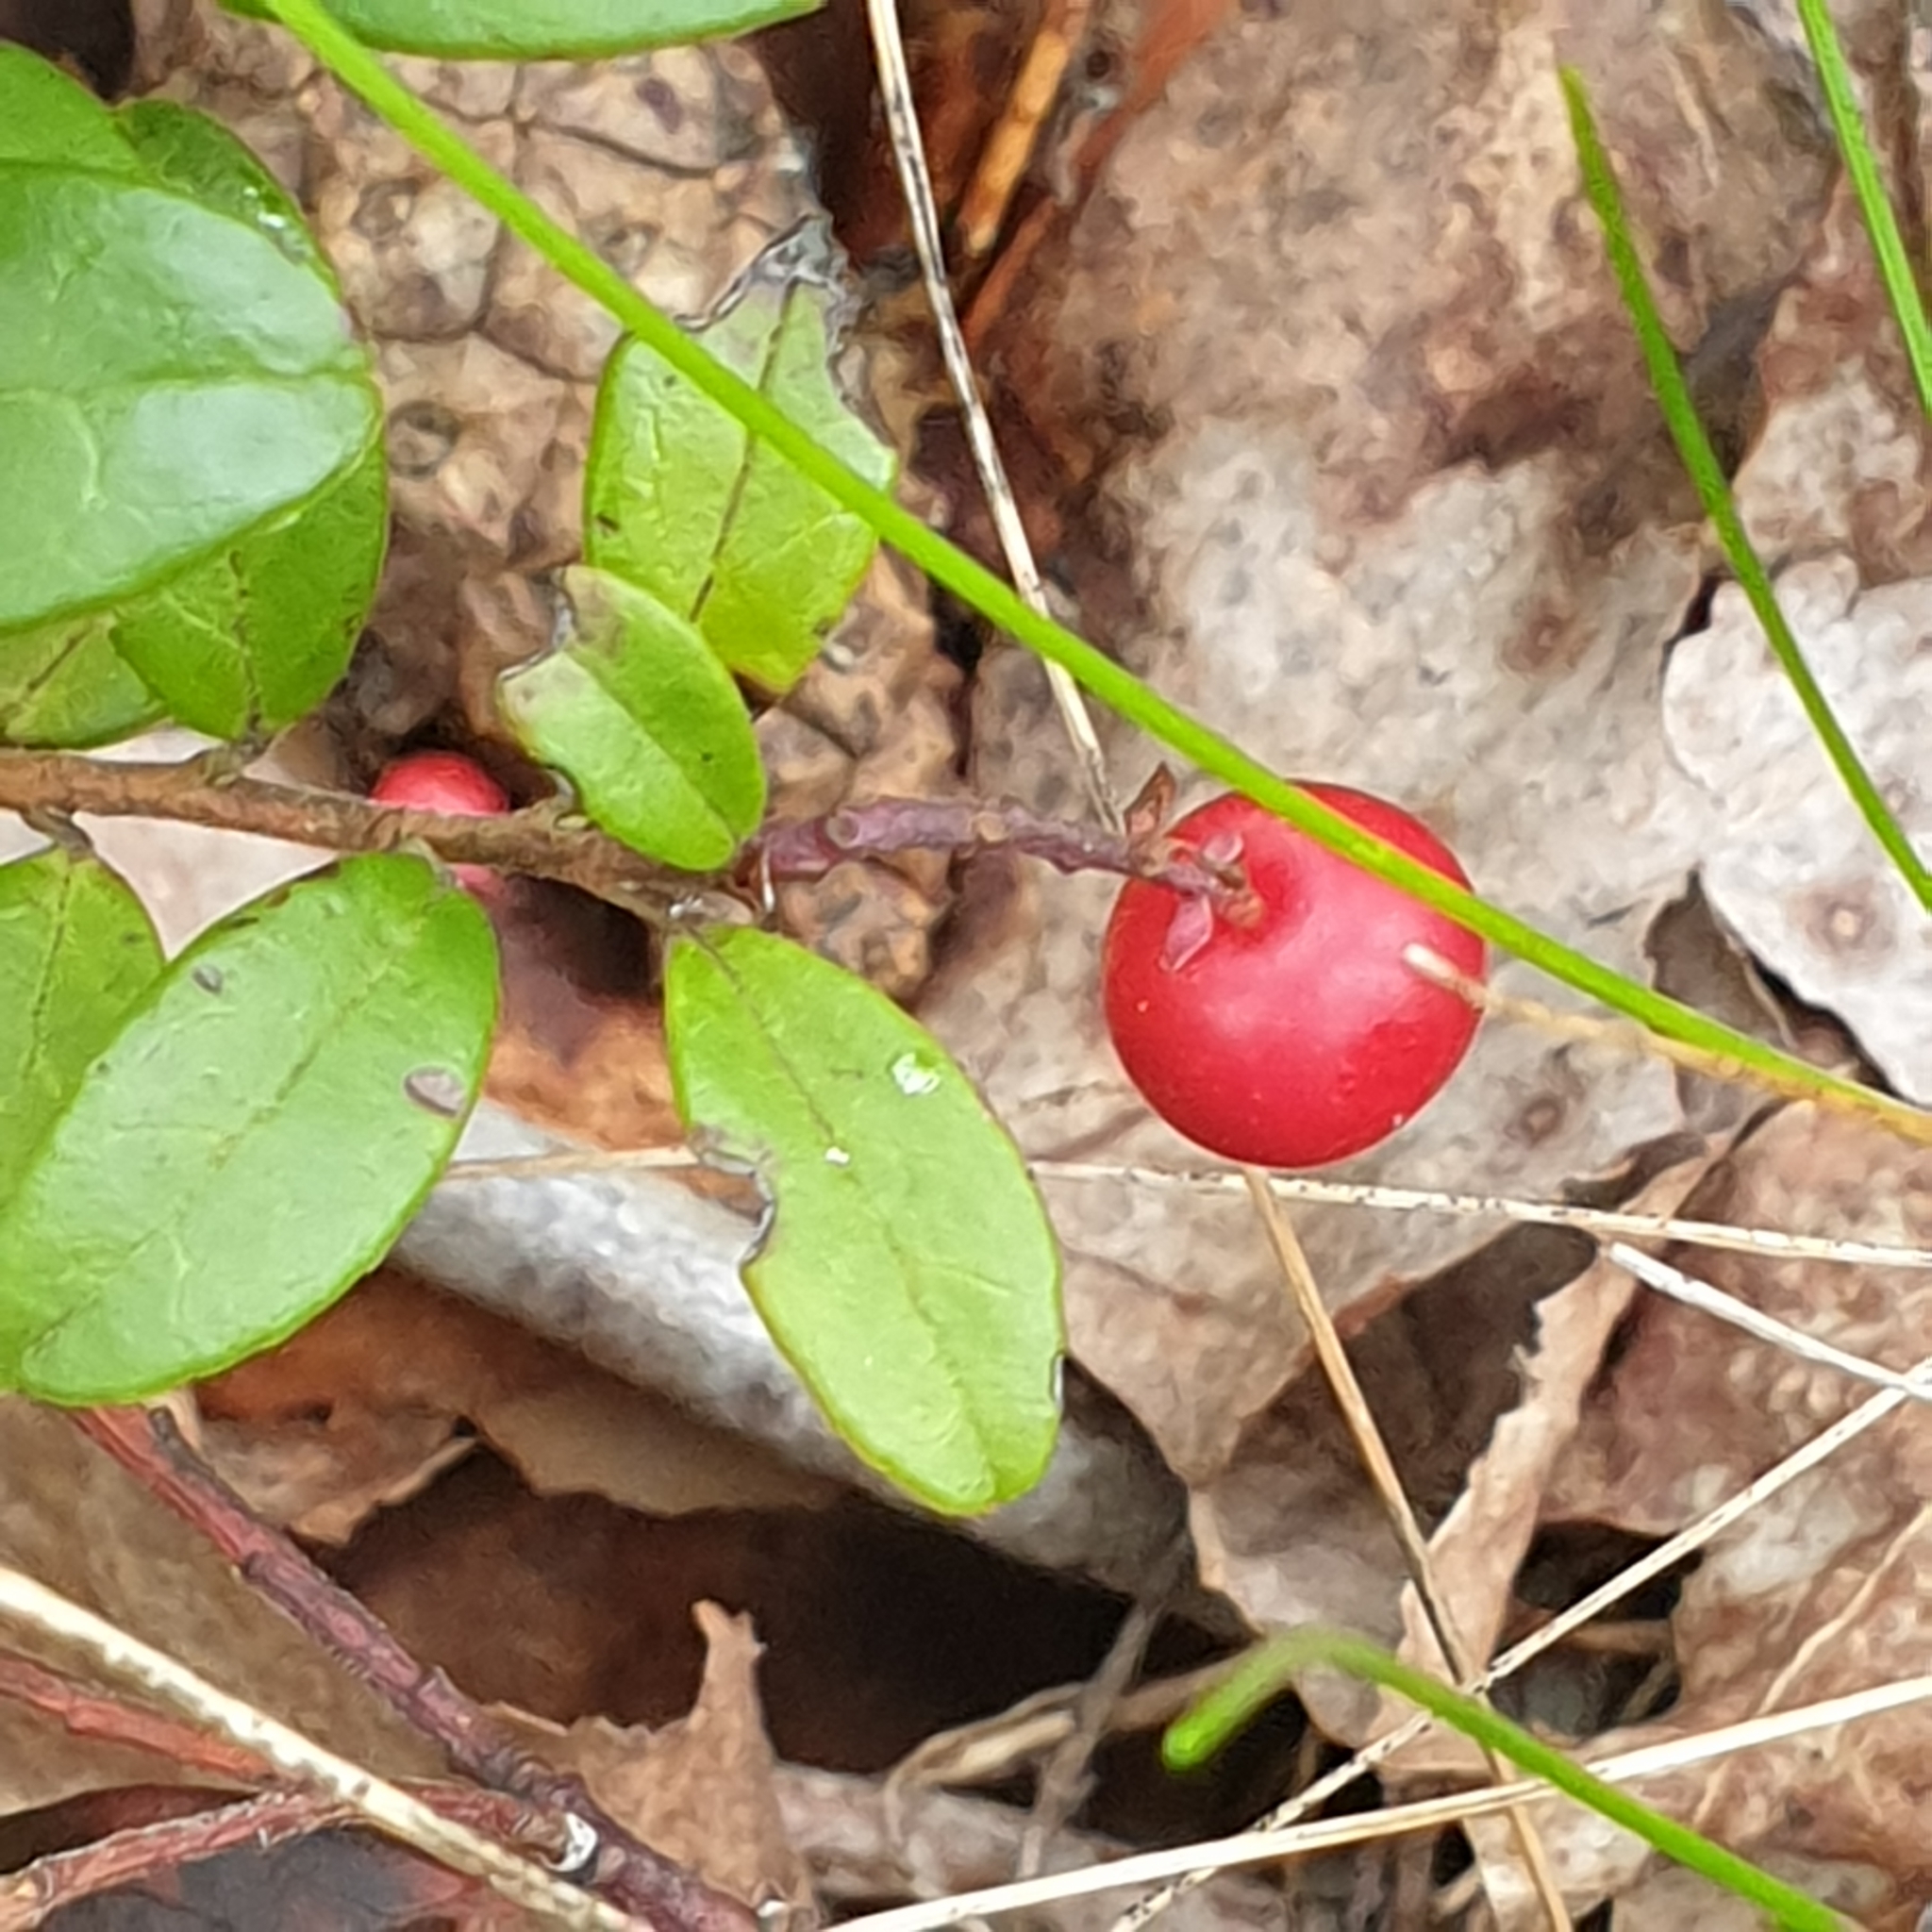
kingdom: Plantae
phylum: Tracheophyta
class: Magnoliopsida
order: Ericales
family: Ericaceae
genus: Vaccinium
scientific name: Vaccinium vitis-idaea
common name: Cowberry
